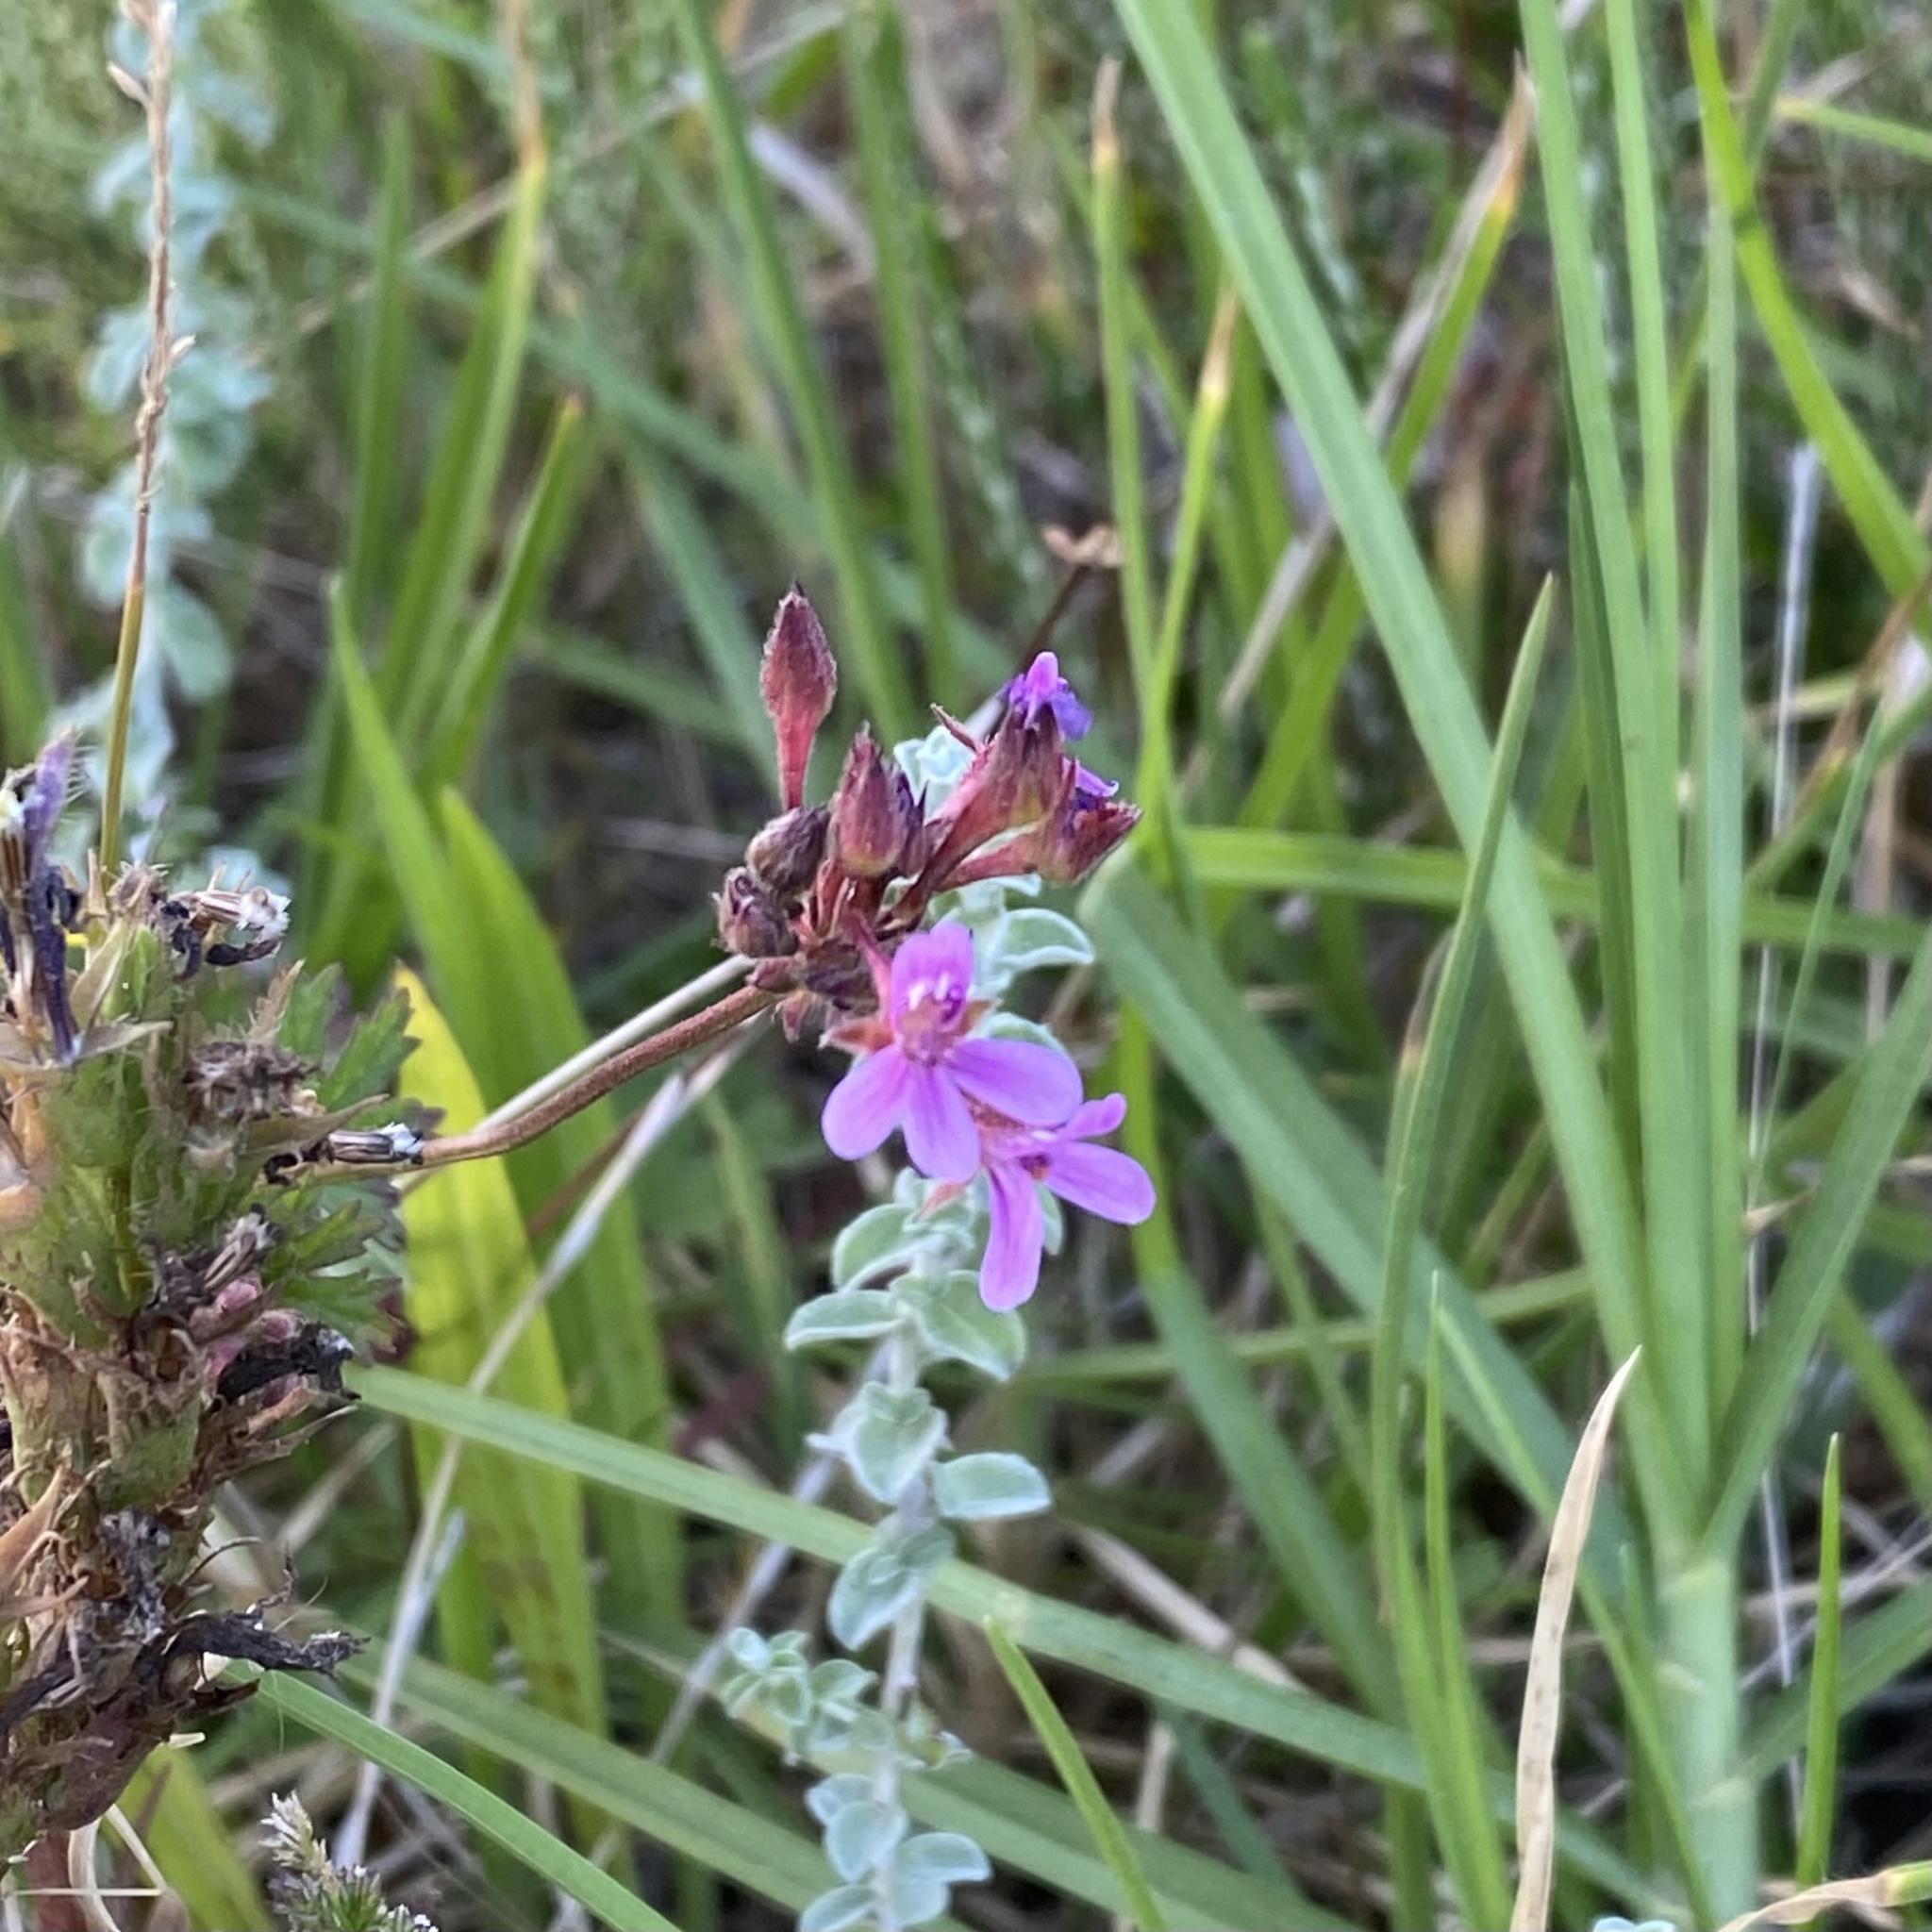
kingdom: Plantae
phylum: Tracheophyta
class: Magnoliopsida
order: Geraniales
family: Geraniaceae
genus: Pelargonium
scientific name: Pelargonium grossularioides
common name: Gooseberry geranium
